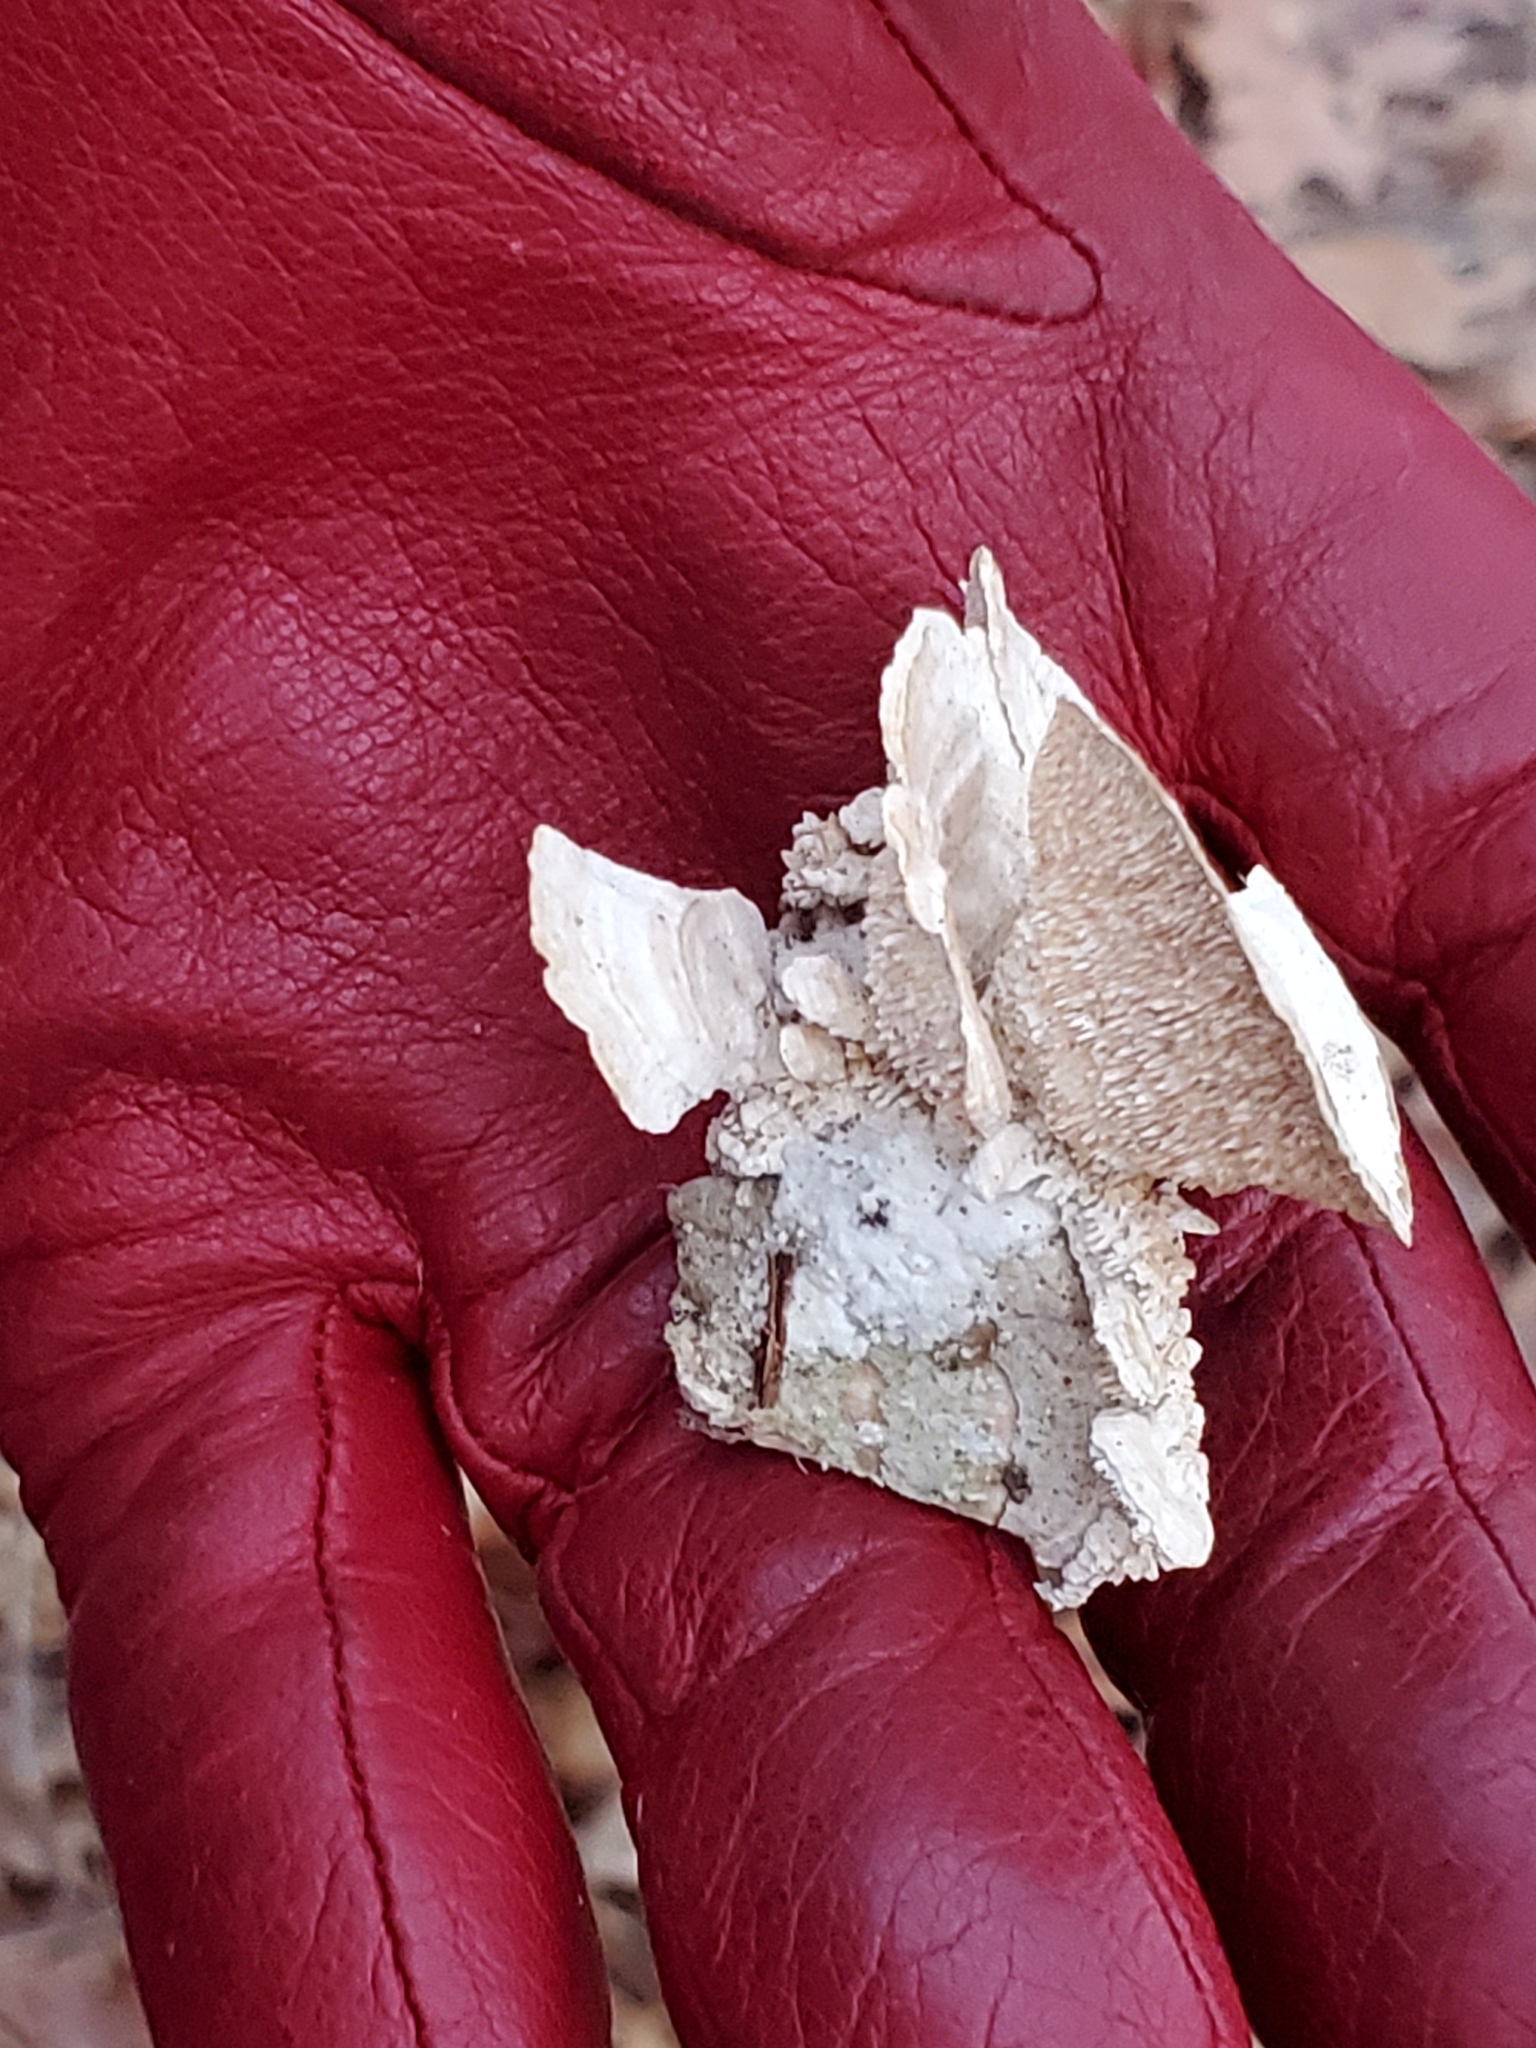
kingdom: Fungi
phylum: Basidiomycota
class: Agaricomycetes
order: Polyporales
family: Meruliaceae
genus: Irpiciporus
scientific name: Irpiciporus pachyodon
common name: Marshmallow polypore
